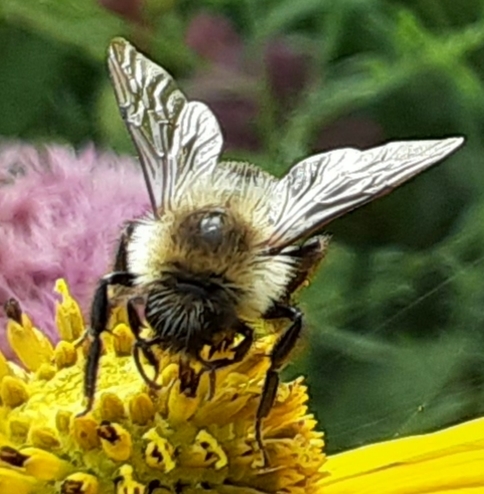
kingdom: Animalia
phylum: Arthropoda
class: Insecta
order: Hymenoptera
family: Apidae
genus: Bombus
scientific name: Bombus impatiens
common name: Common eastern bumble bee
